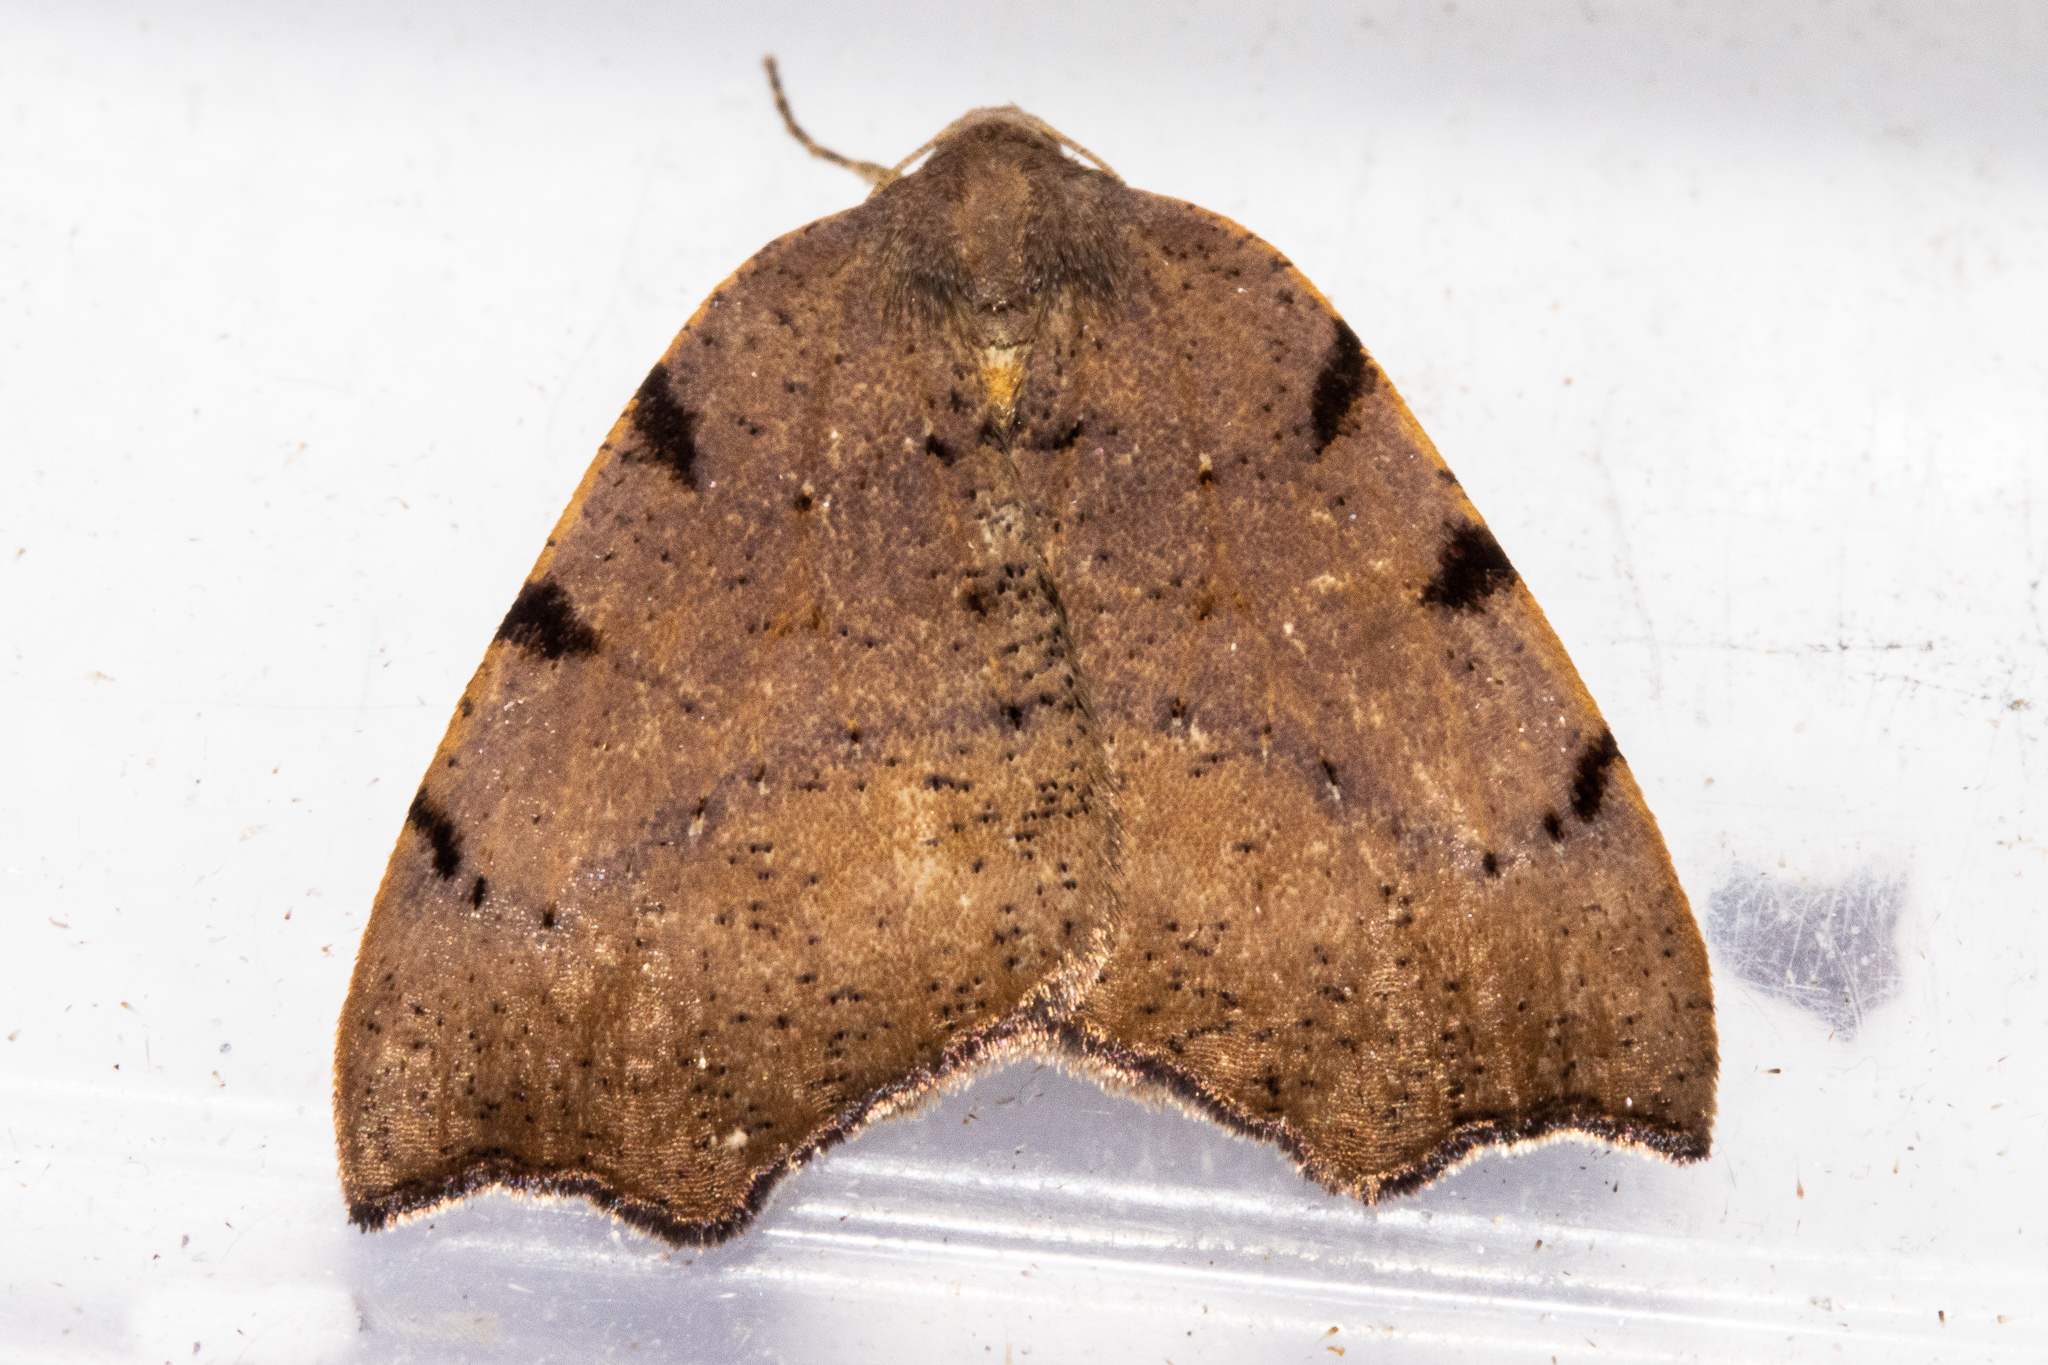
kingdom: Animalia
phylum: Arthropoda
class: Insecta
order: Lepidoptera
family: Geometridae
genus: Sestra
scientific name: Sestra flexata
